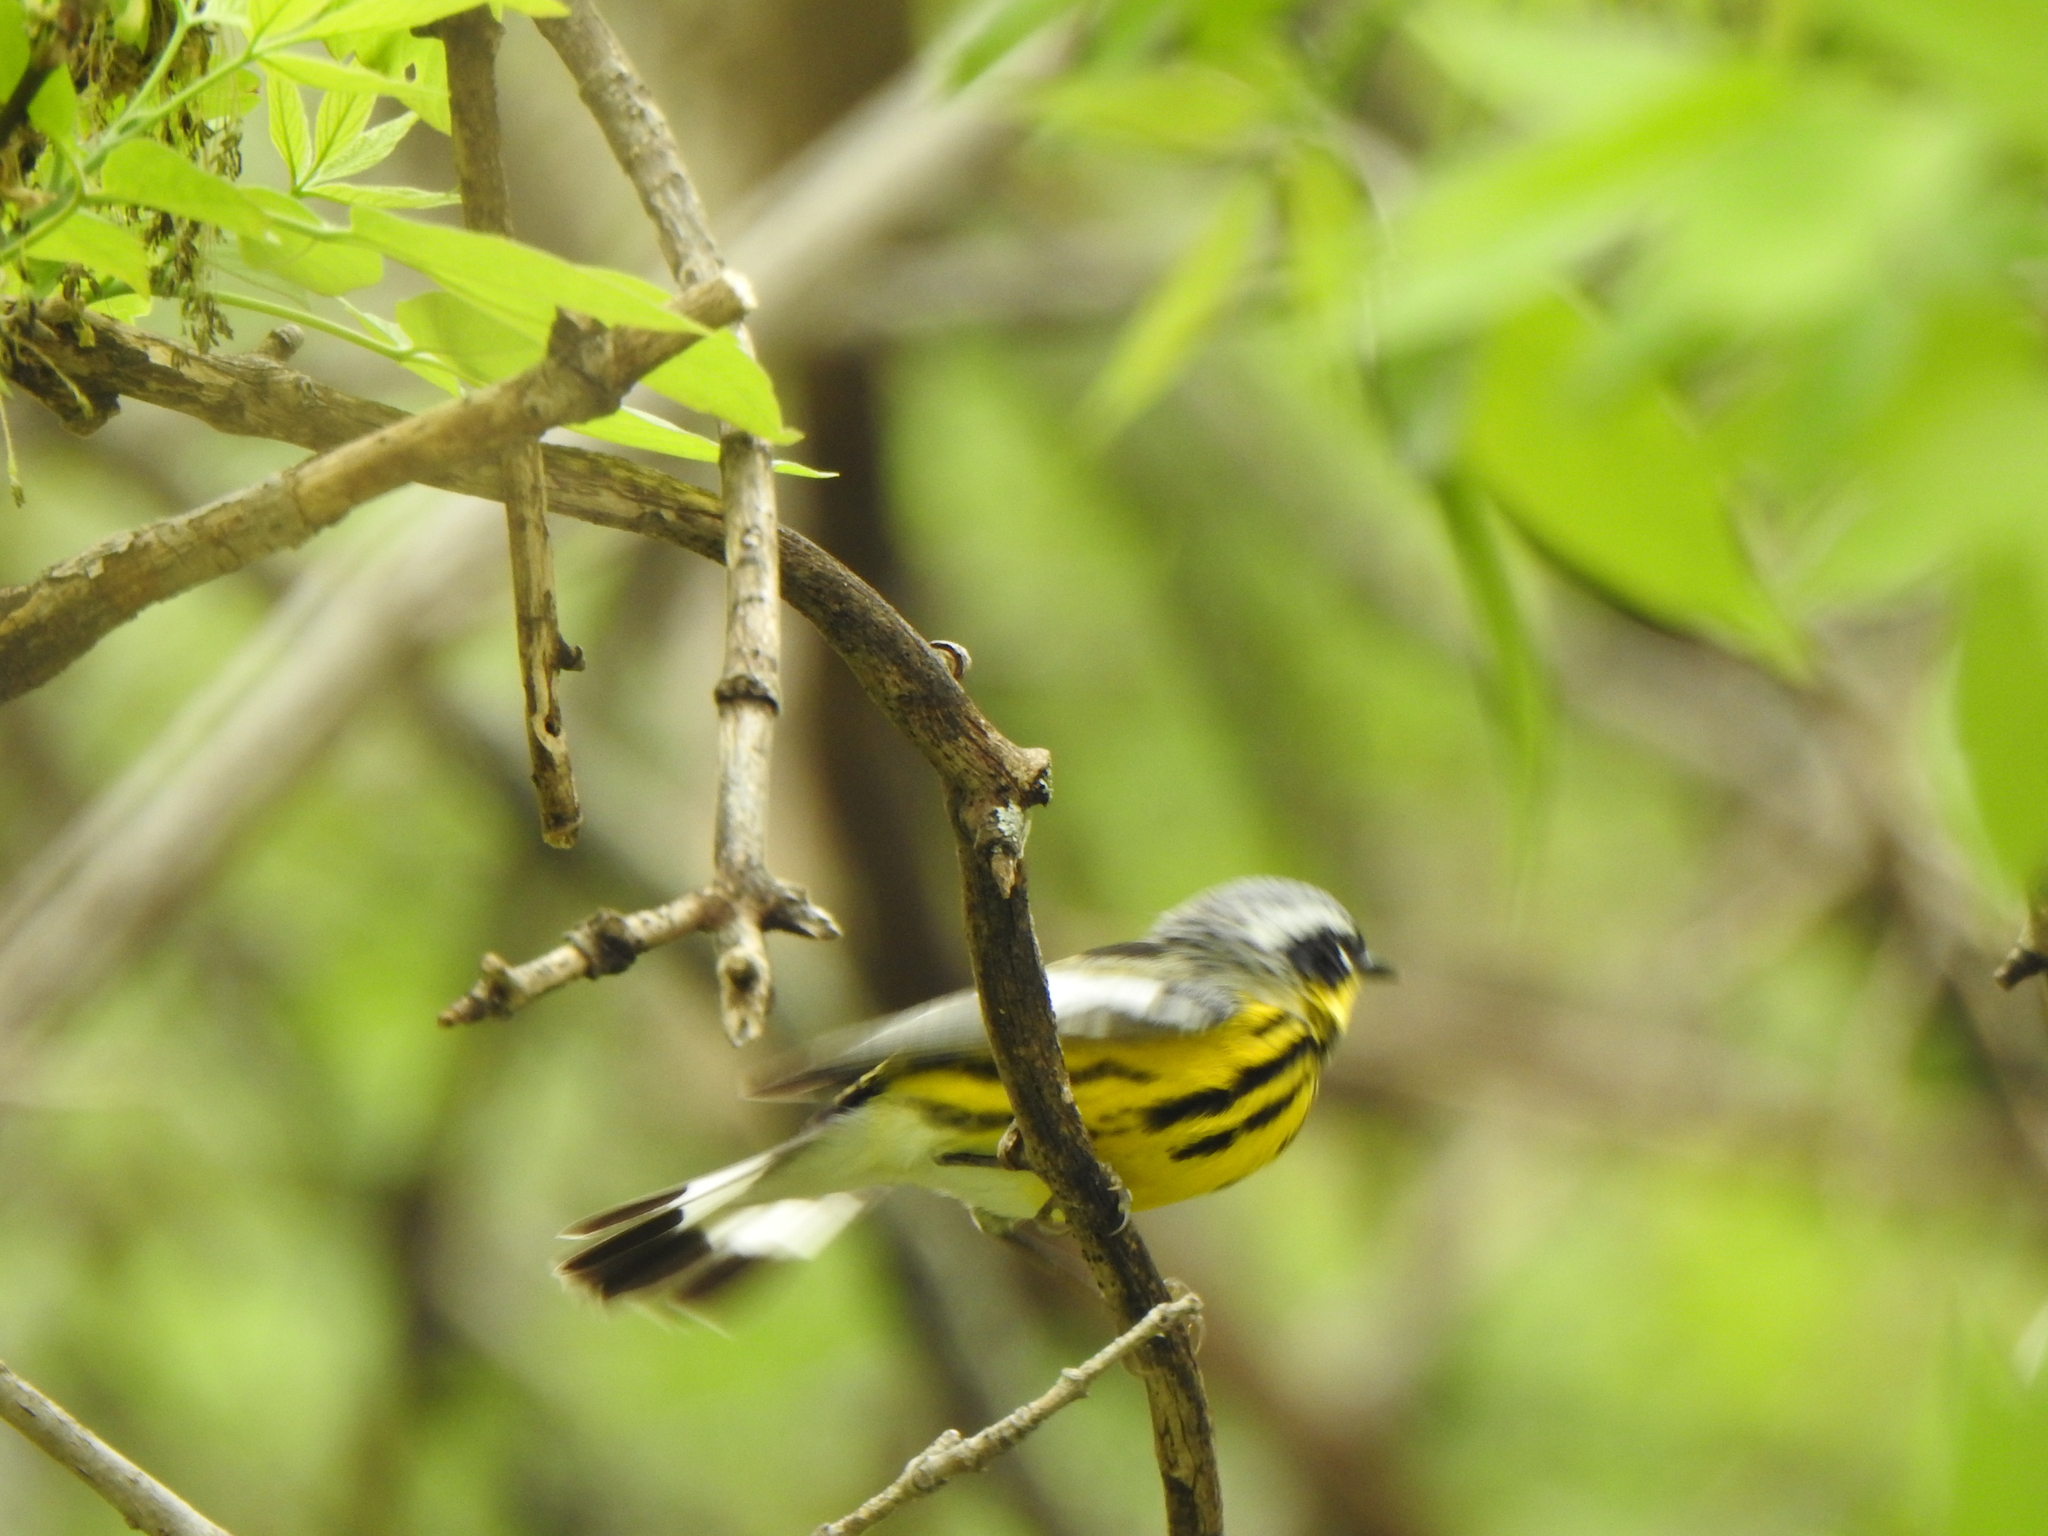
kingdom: Animalia
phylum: Chordata
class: Aves
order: Passeriformes
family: Parulidae
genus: Setophaga
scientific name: Setophaga magnolia
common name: Magnolia warbler
